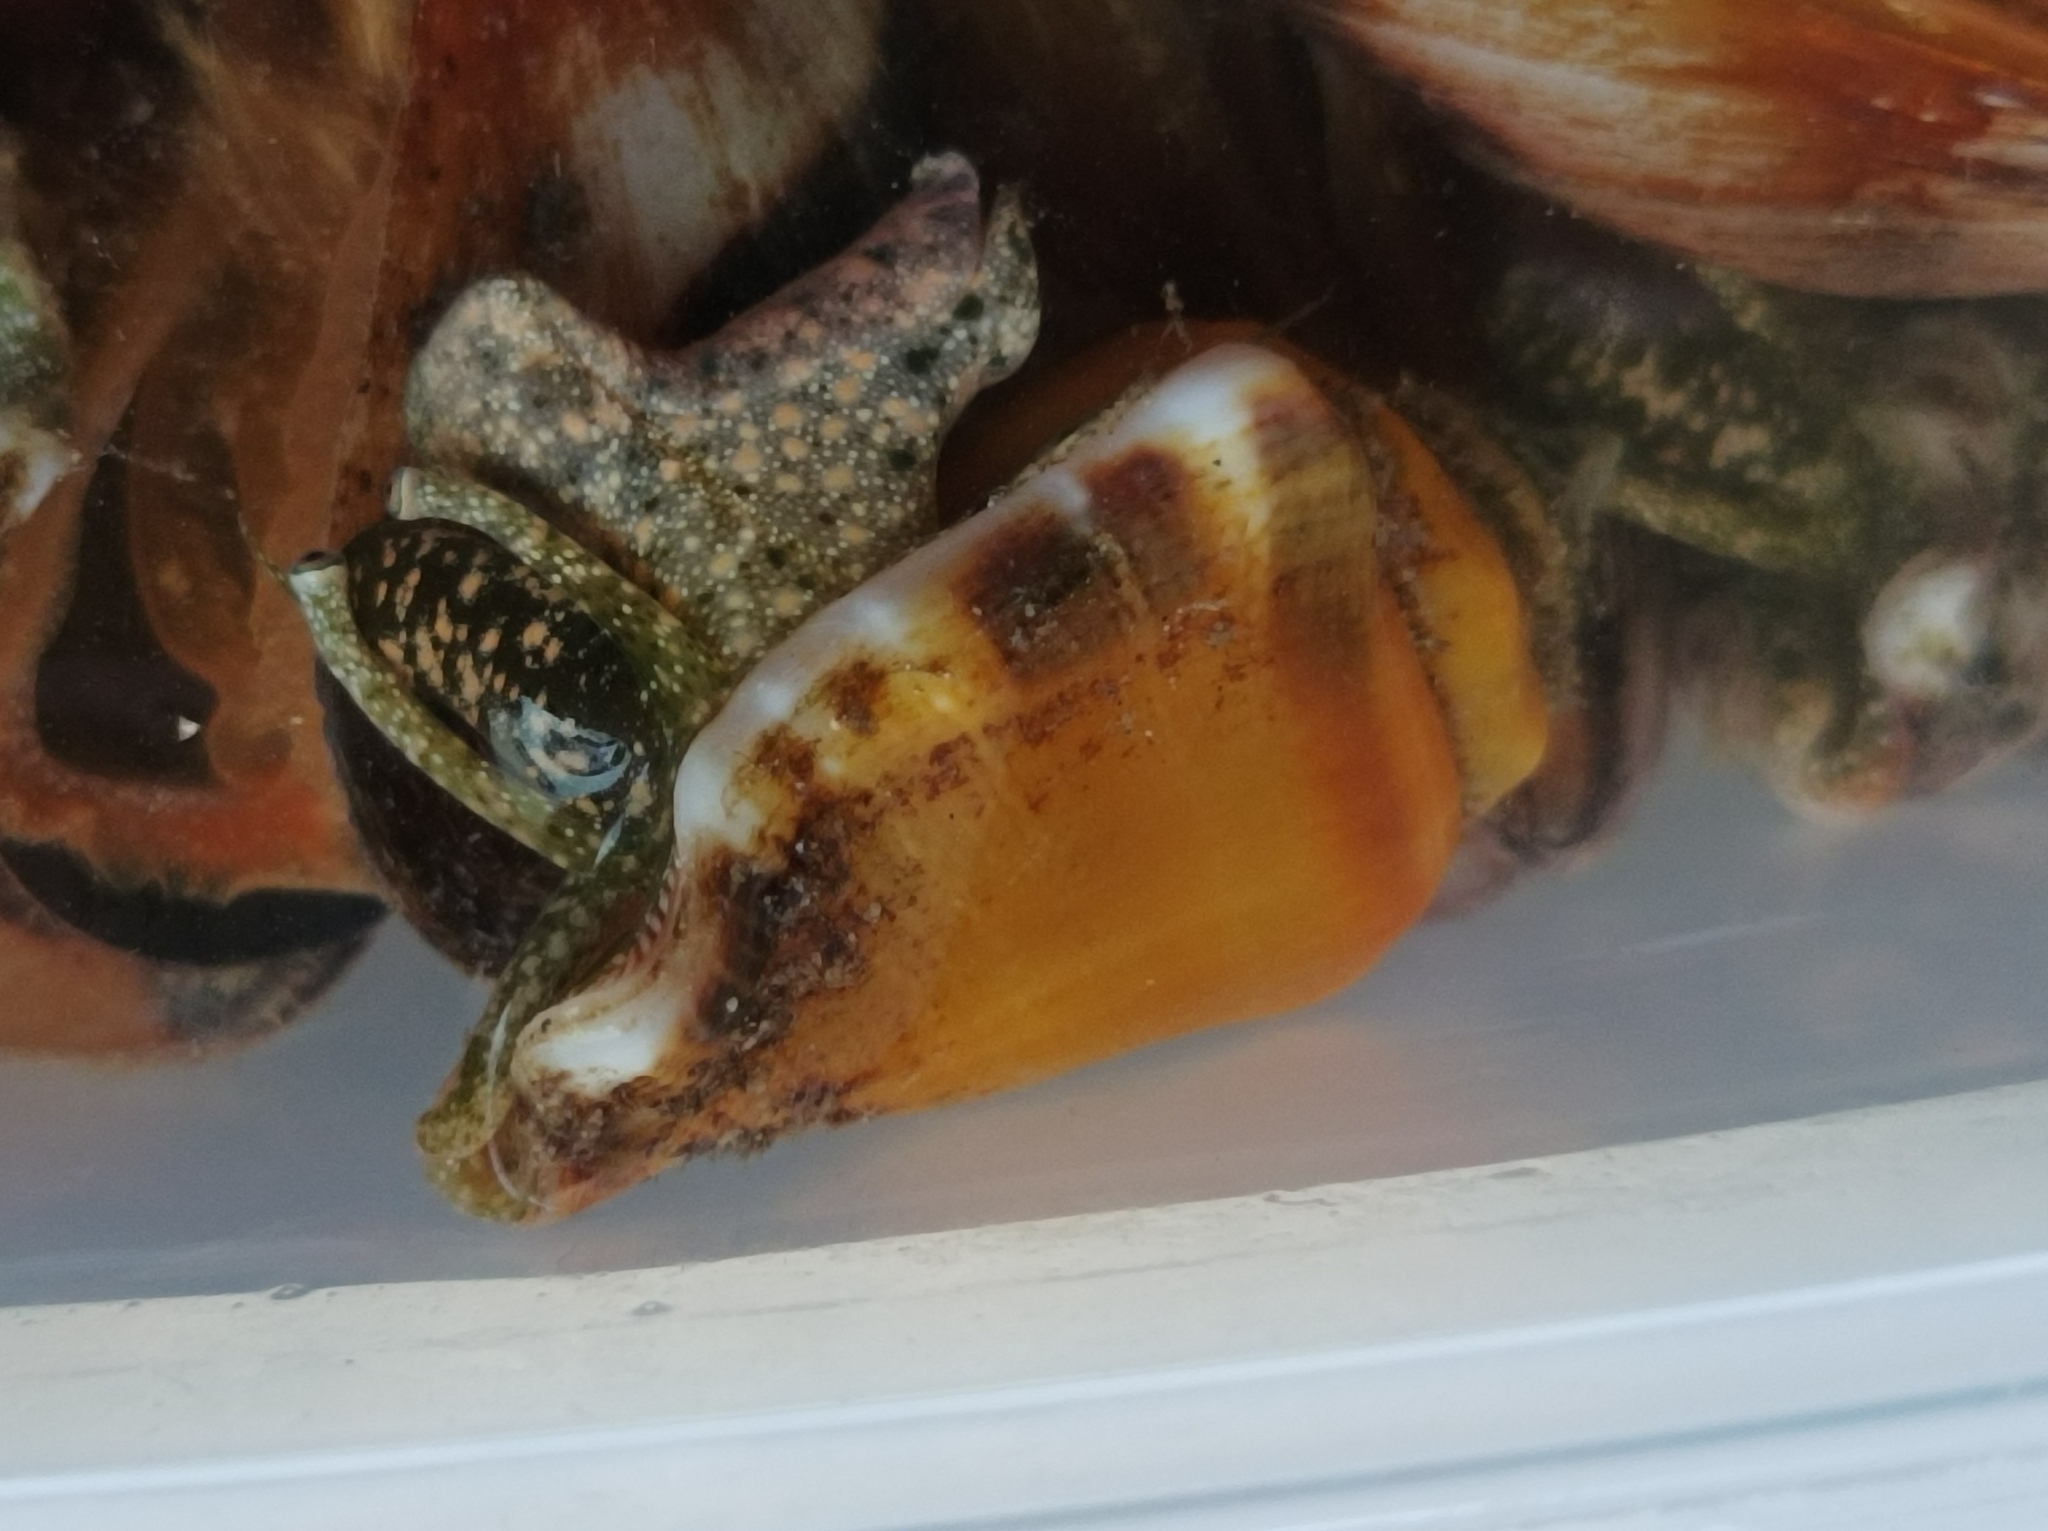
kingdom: Animalia
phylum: Mollusca
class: Gastropoda
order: Littorinimorpha
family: Strombidae
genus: Gibberulus
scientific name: Gibberulus gibberulus
